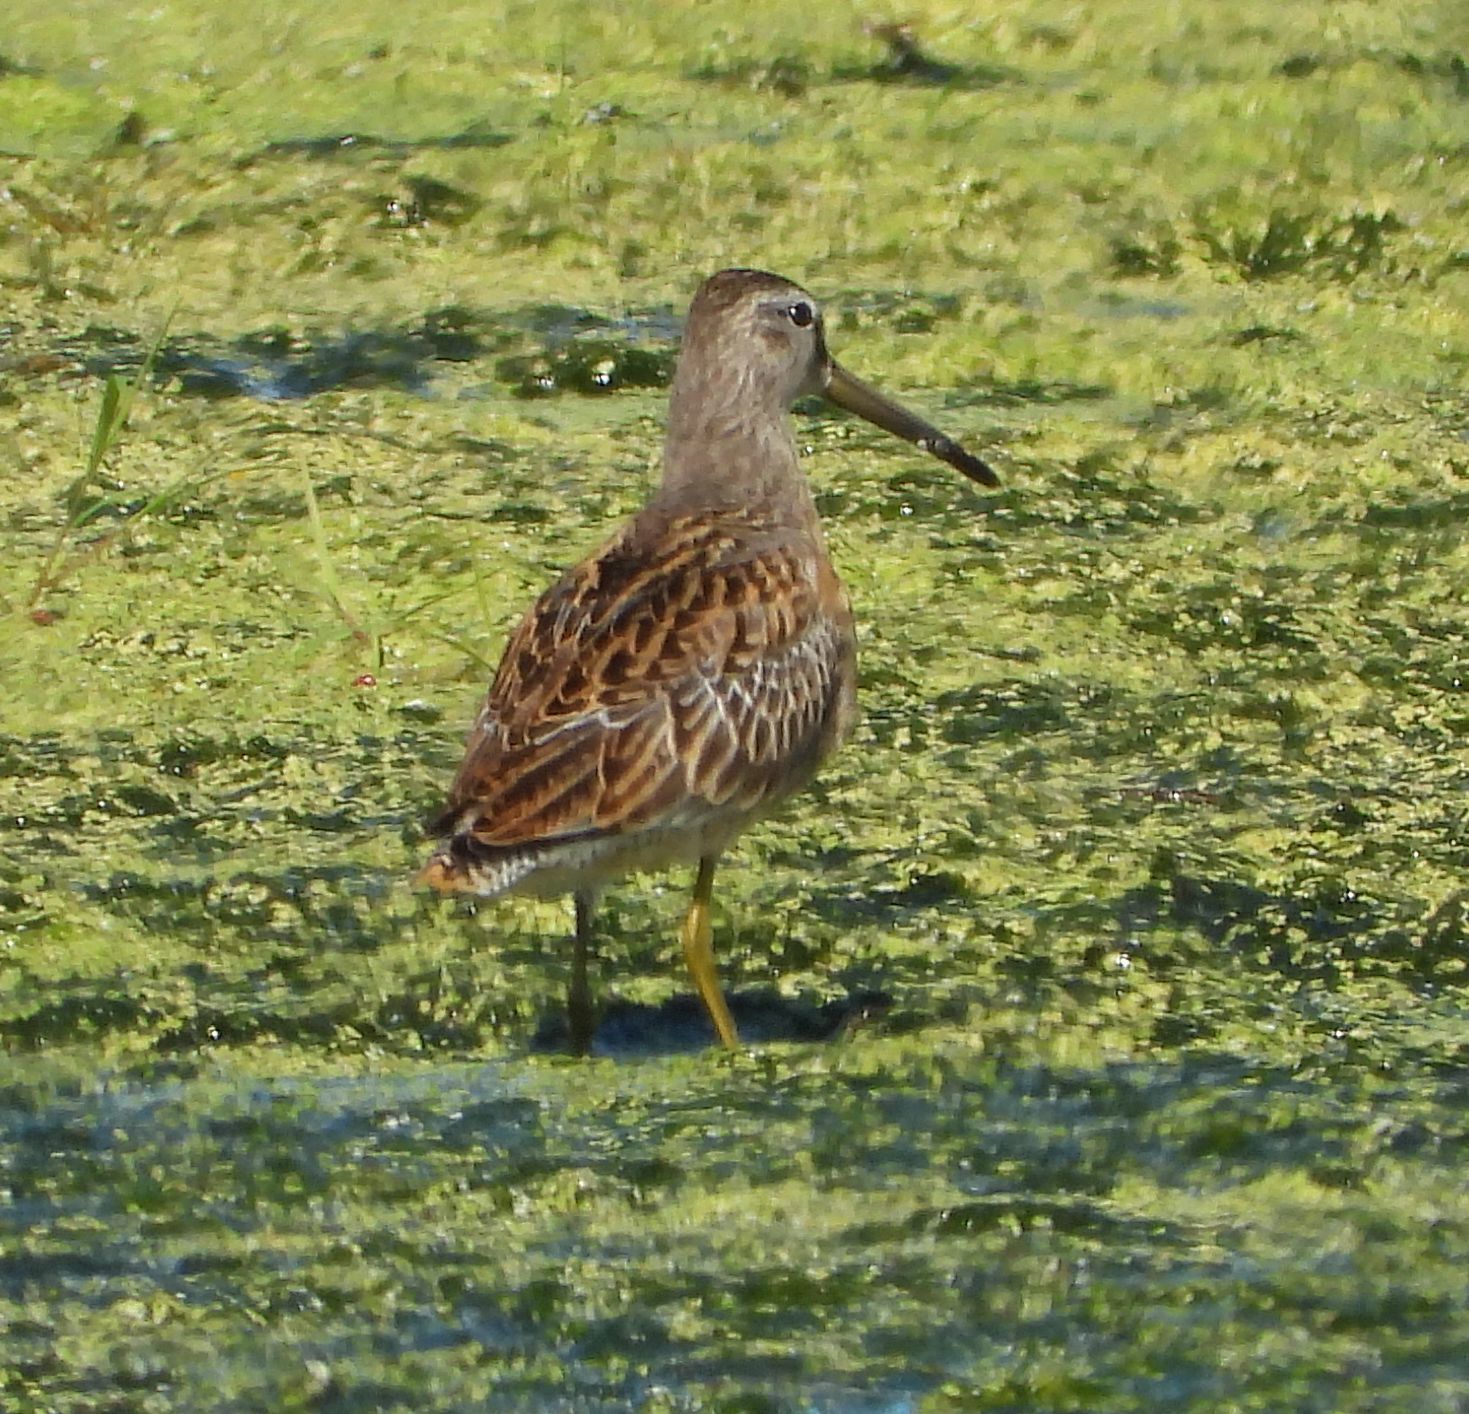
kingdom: Animalia
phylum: Chordata
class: Aves
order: Charadriiformes
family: Scolopacidae
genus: Limnodromus
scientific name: Limnodromus griseus
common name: Short-billed dowitcher
